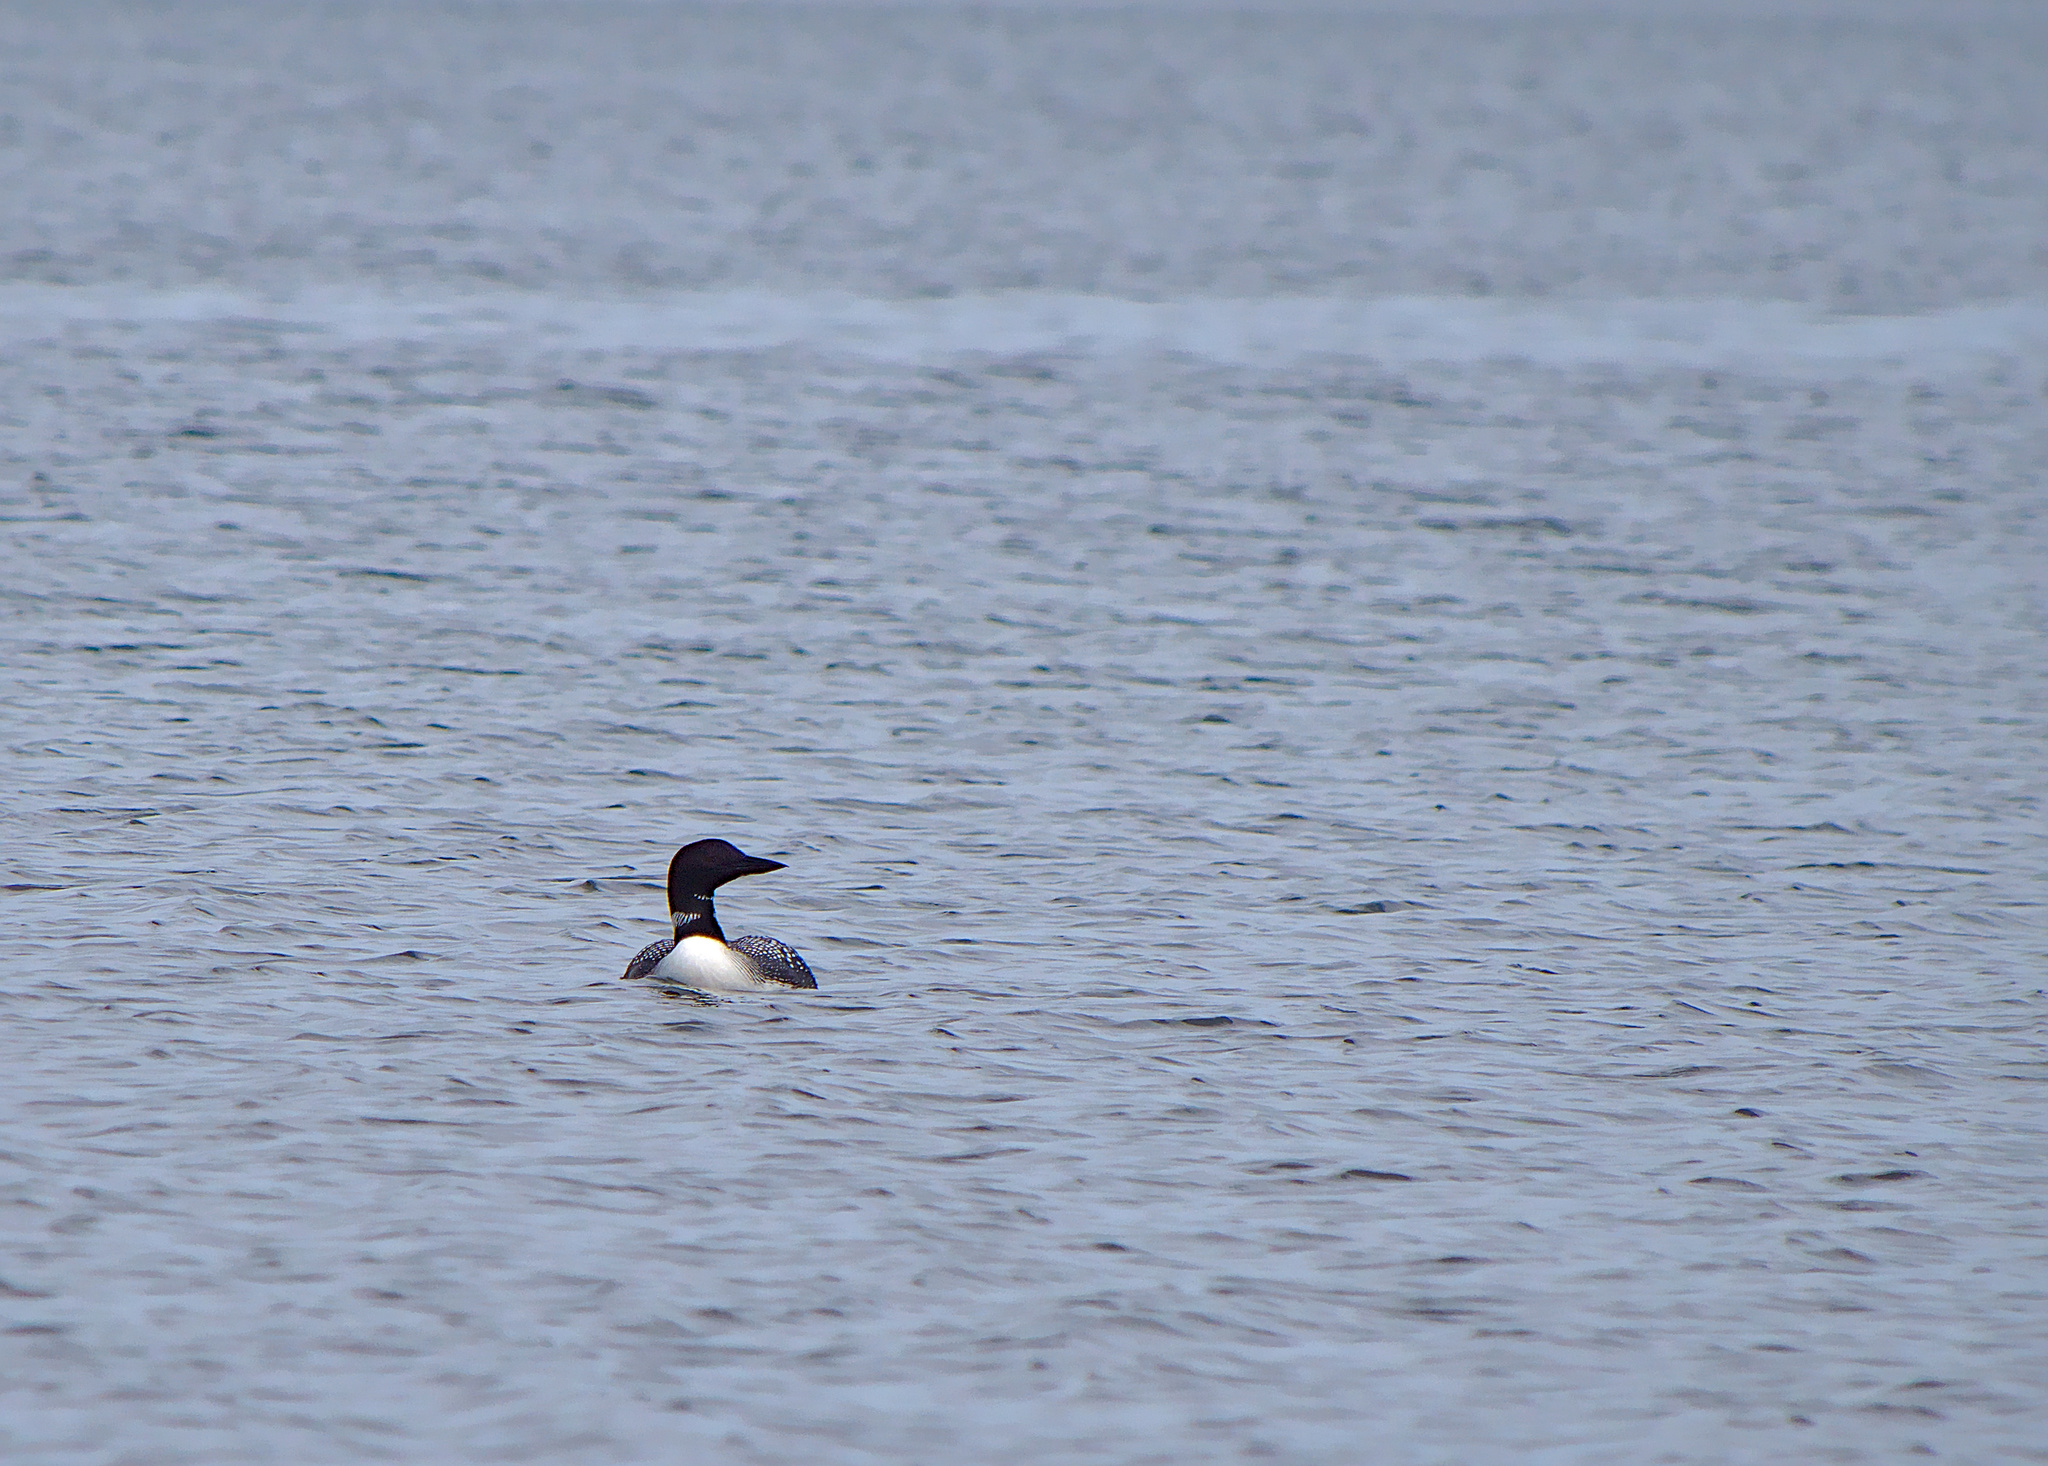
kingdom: Animalia
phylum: Chordata
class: Aves
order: Gaviiformes
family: Gaviidae
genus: Gavia
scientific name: Gavia immer
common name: Common loon
